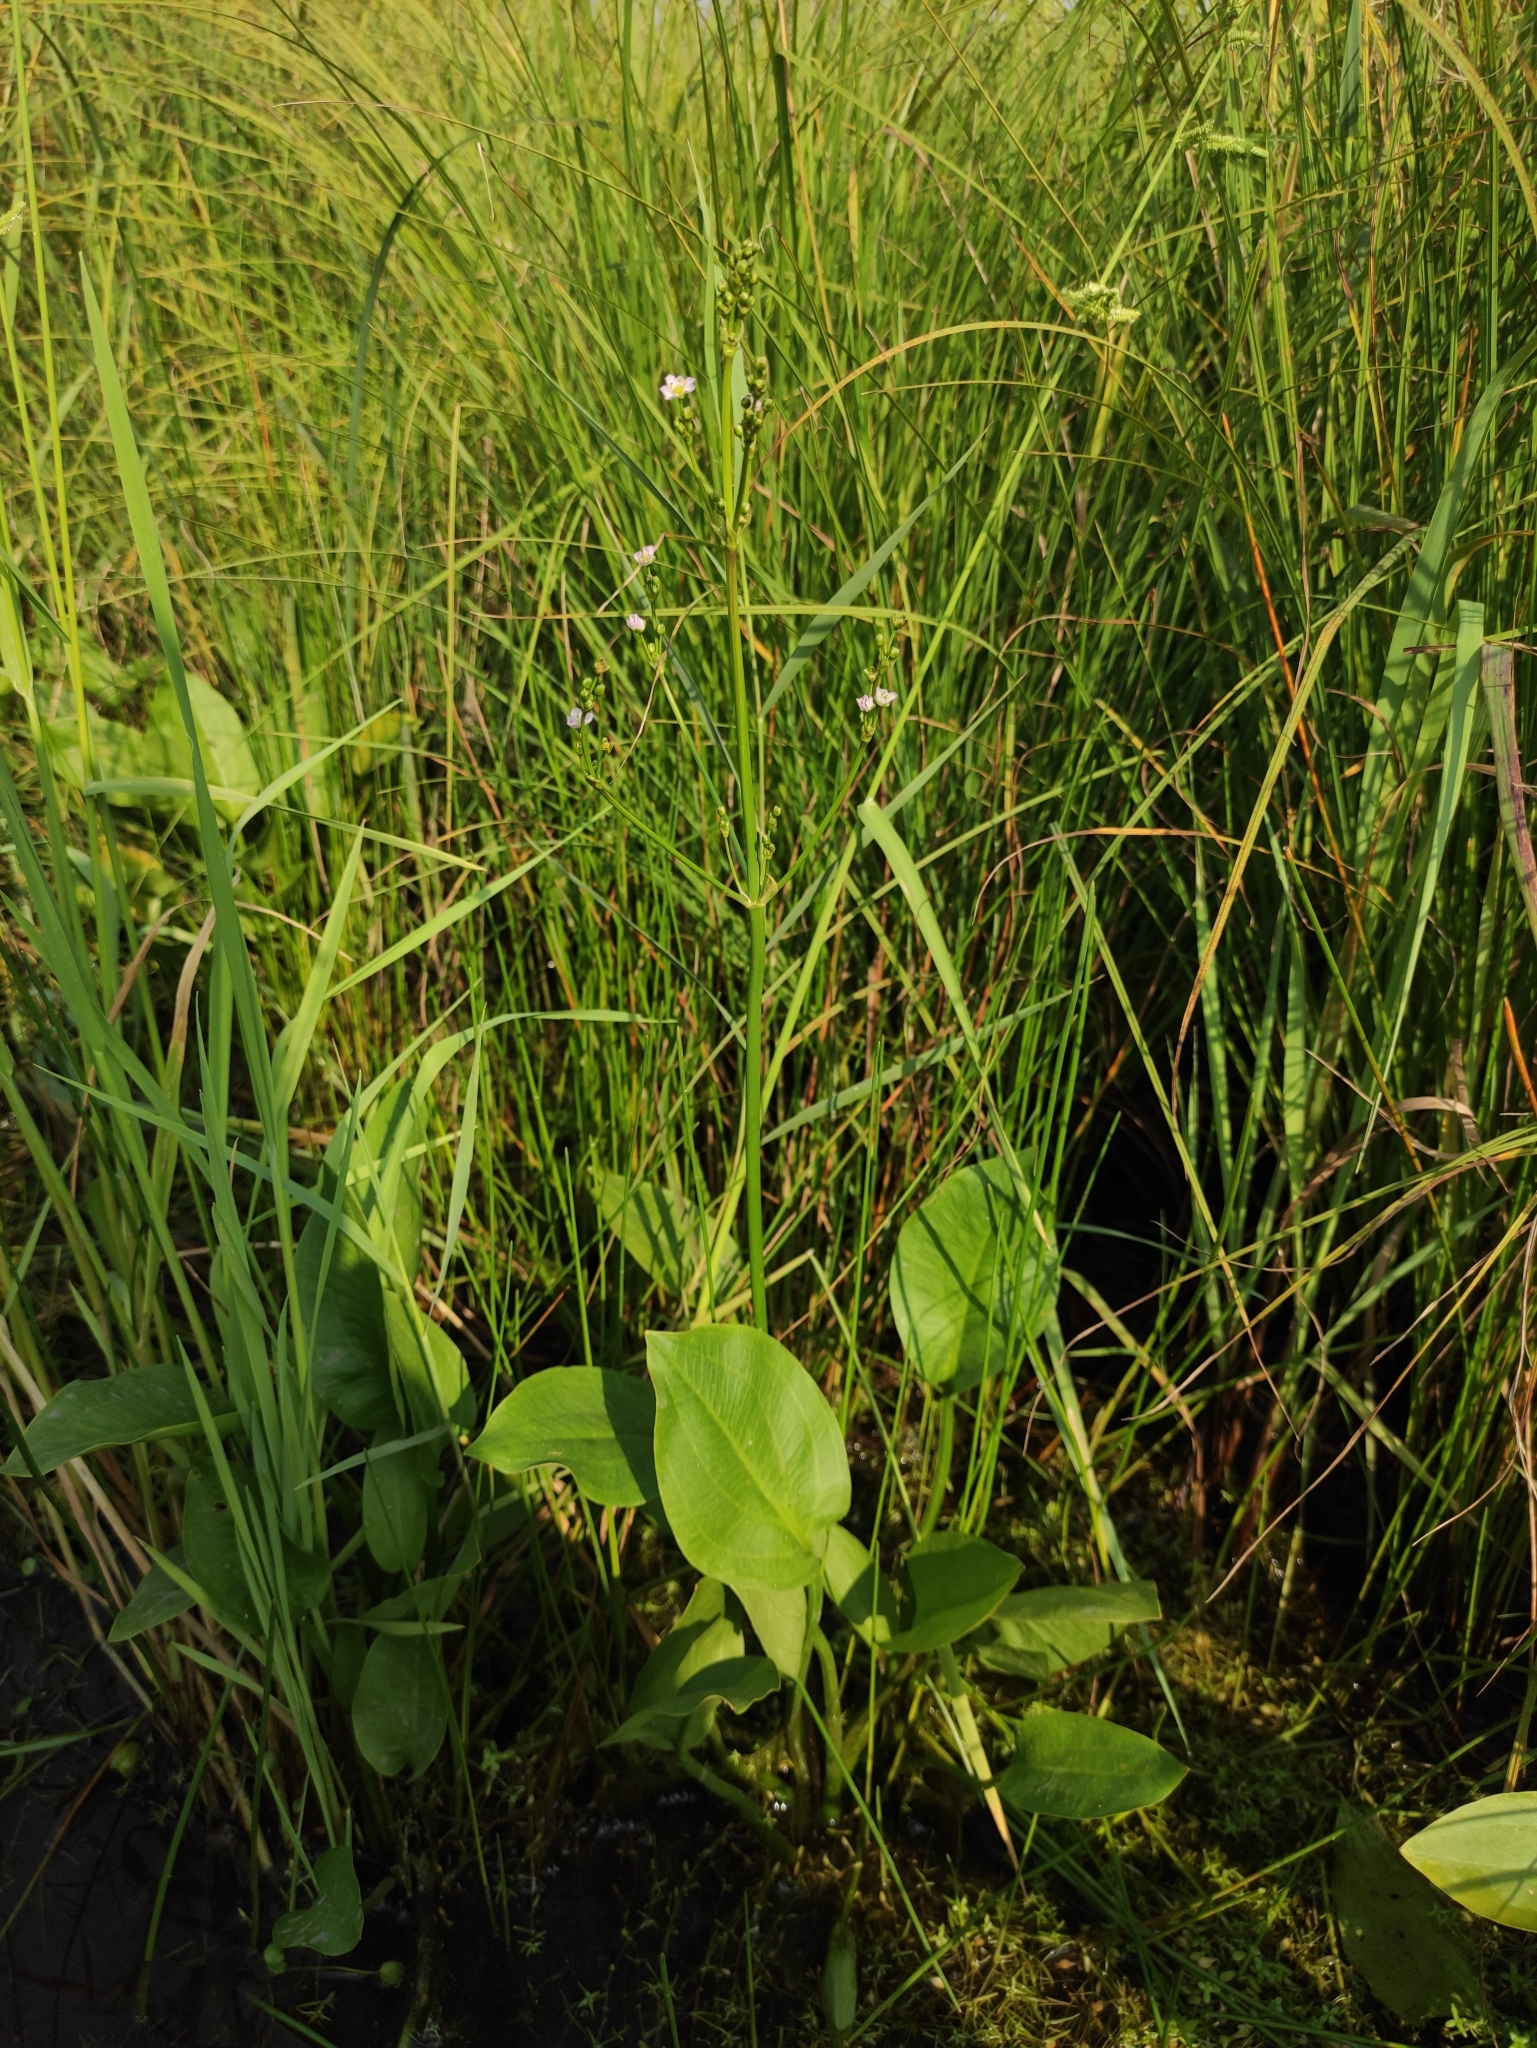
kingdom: Plantae
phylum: Tracheophyta
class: Liliopsida
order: Alismatales
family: Alismataceae
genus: Alisma
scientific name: Alisma plantago-aquatica
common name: Water-plantain
